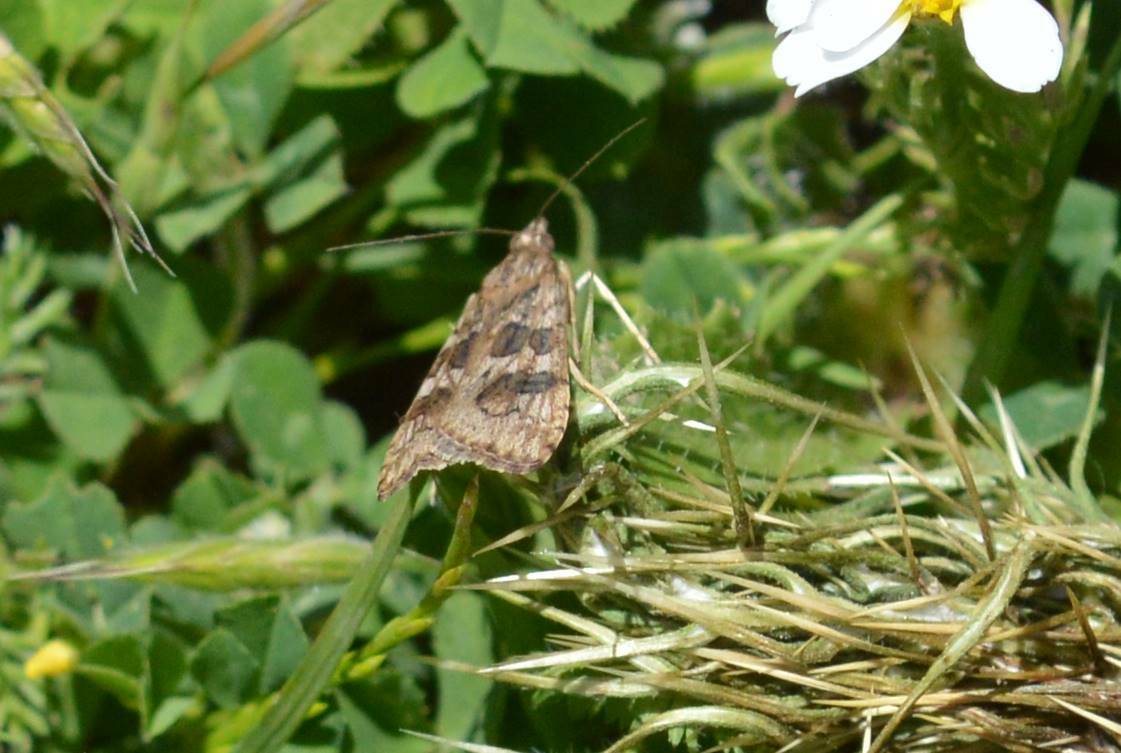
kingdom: Animalia
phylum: Arthropoda
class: Insecta
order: Lepidoptera
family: Crambidae
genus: Nomophila
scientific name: Nomophila noctuella
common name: Rush veneer
